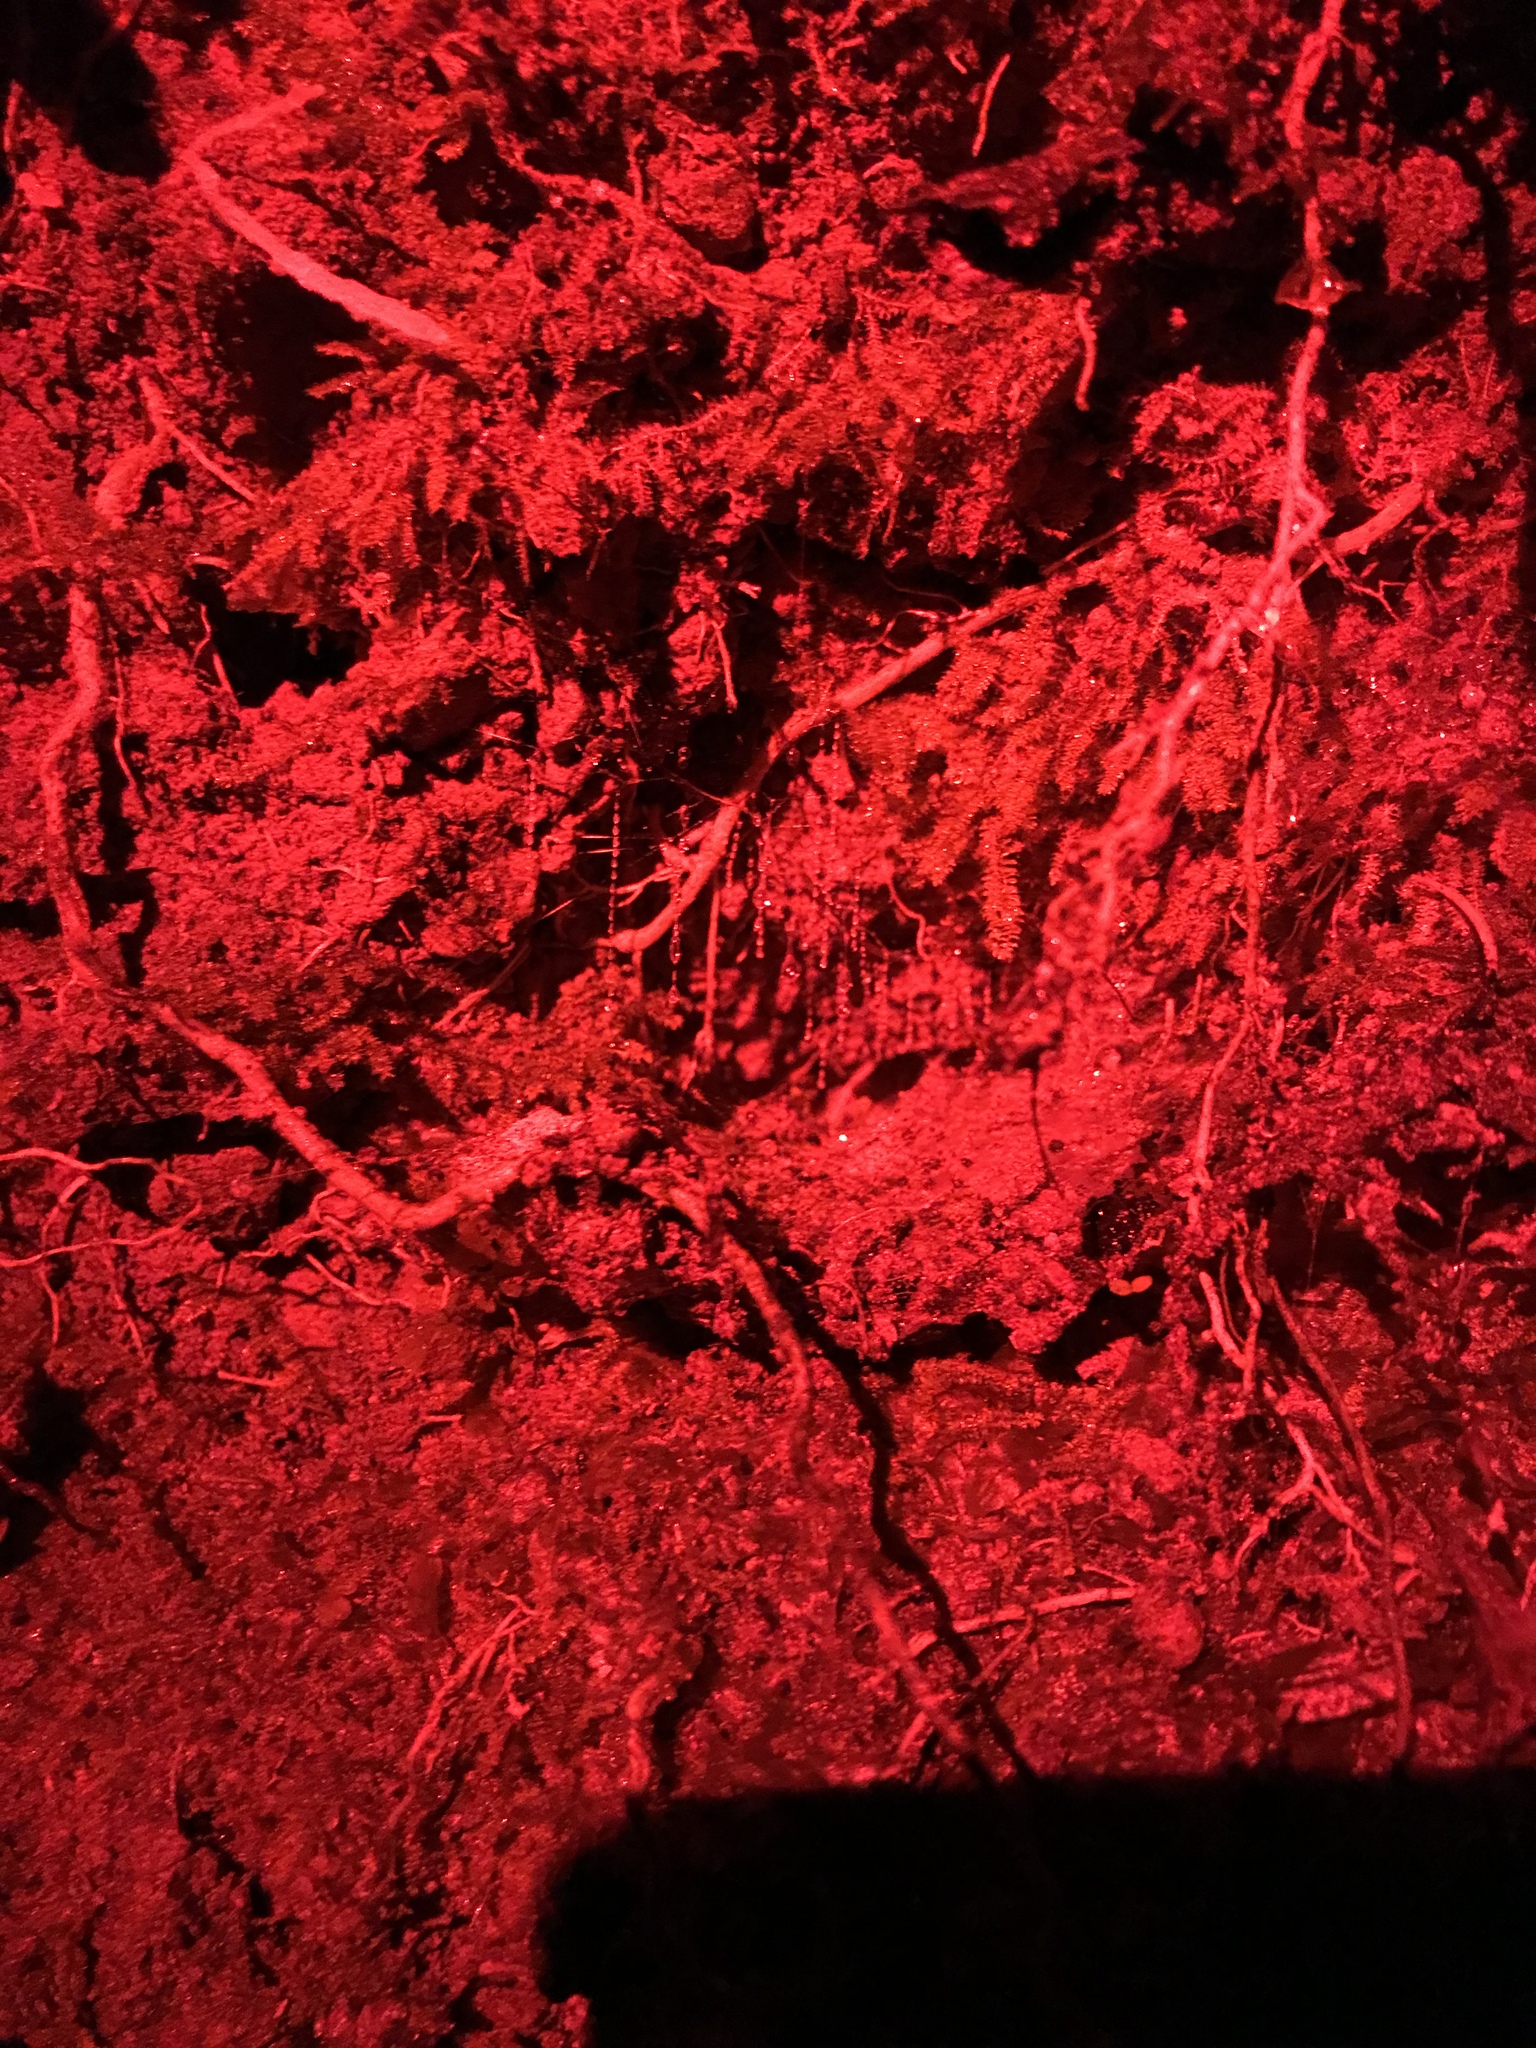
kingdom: Animalia
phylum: Arthropoda
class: Insecta
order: Diptera
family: Keroplatidae
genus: Arachnocampa
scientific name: Arachnocampa luminosa
